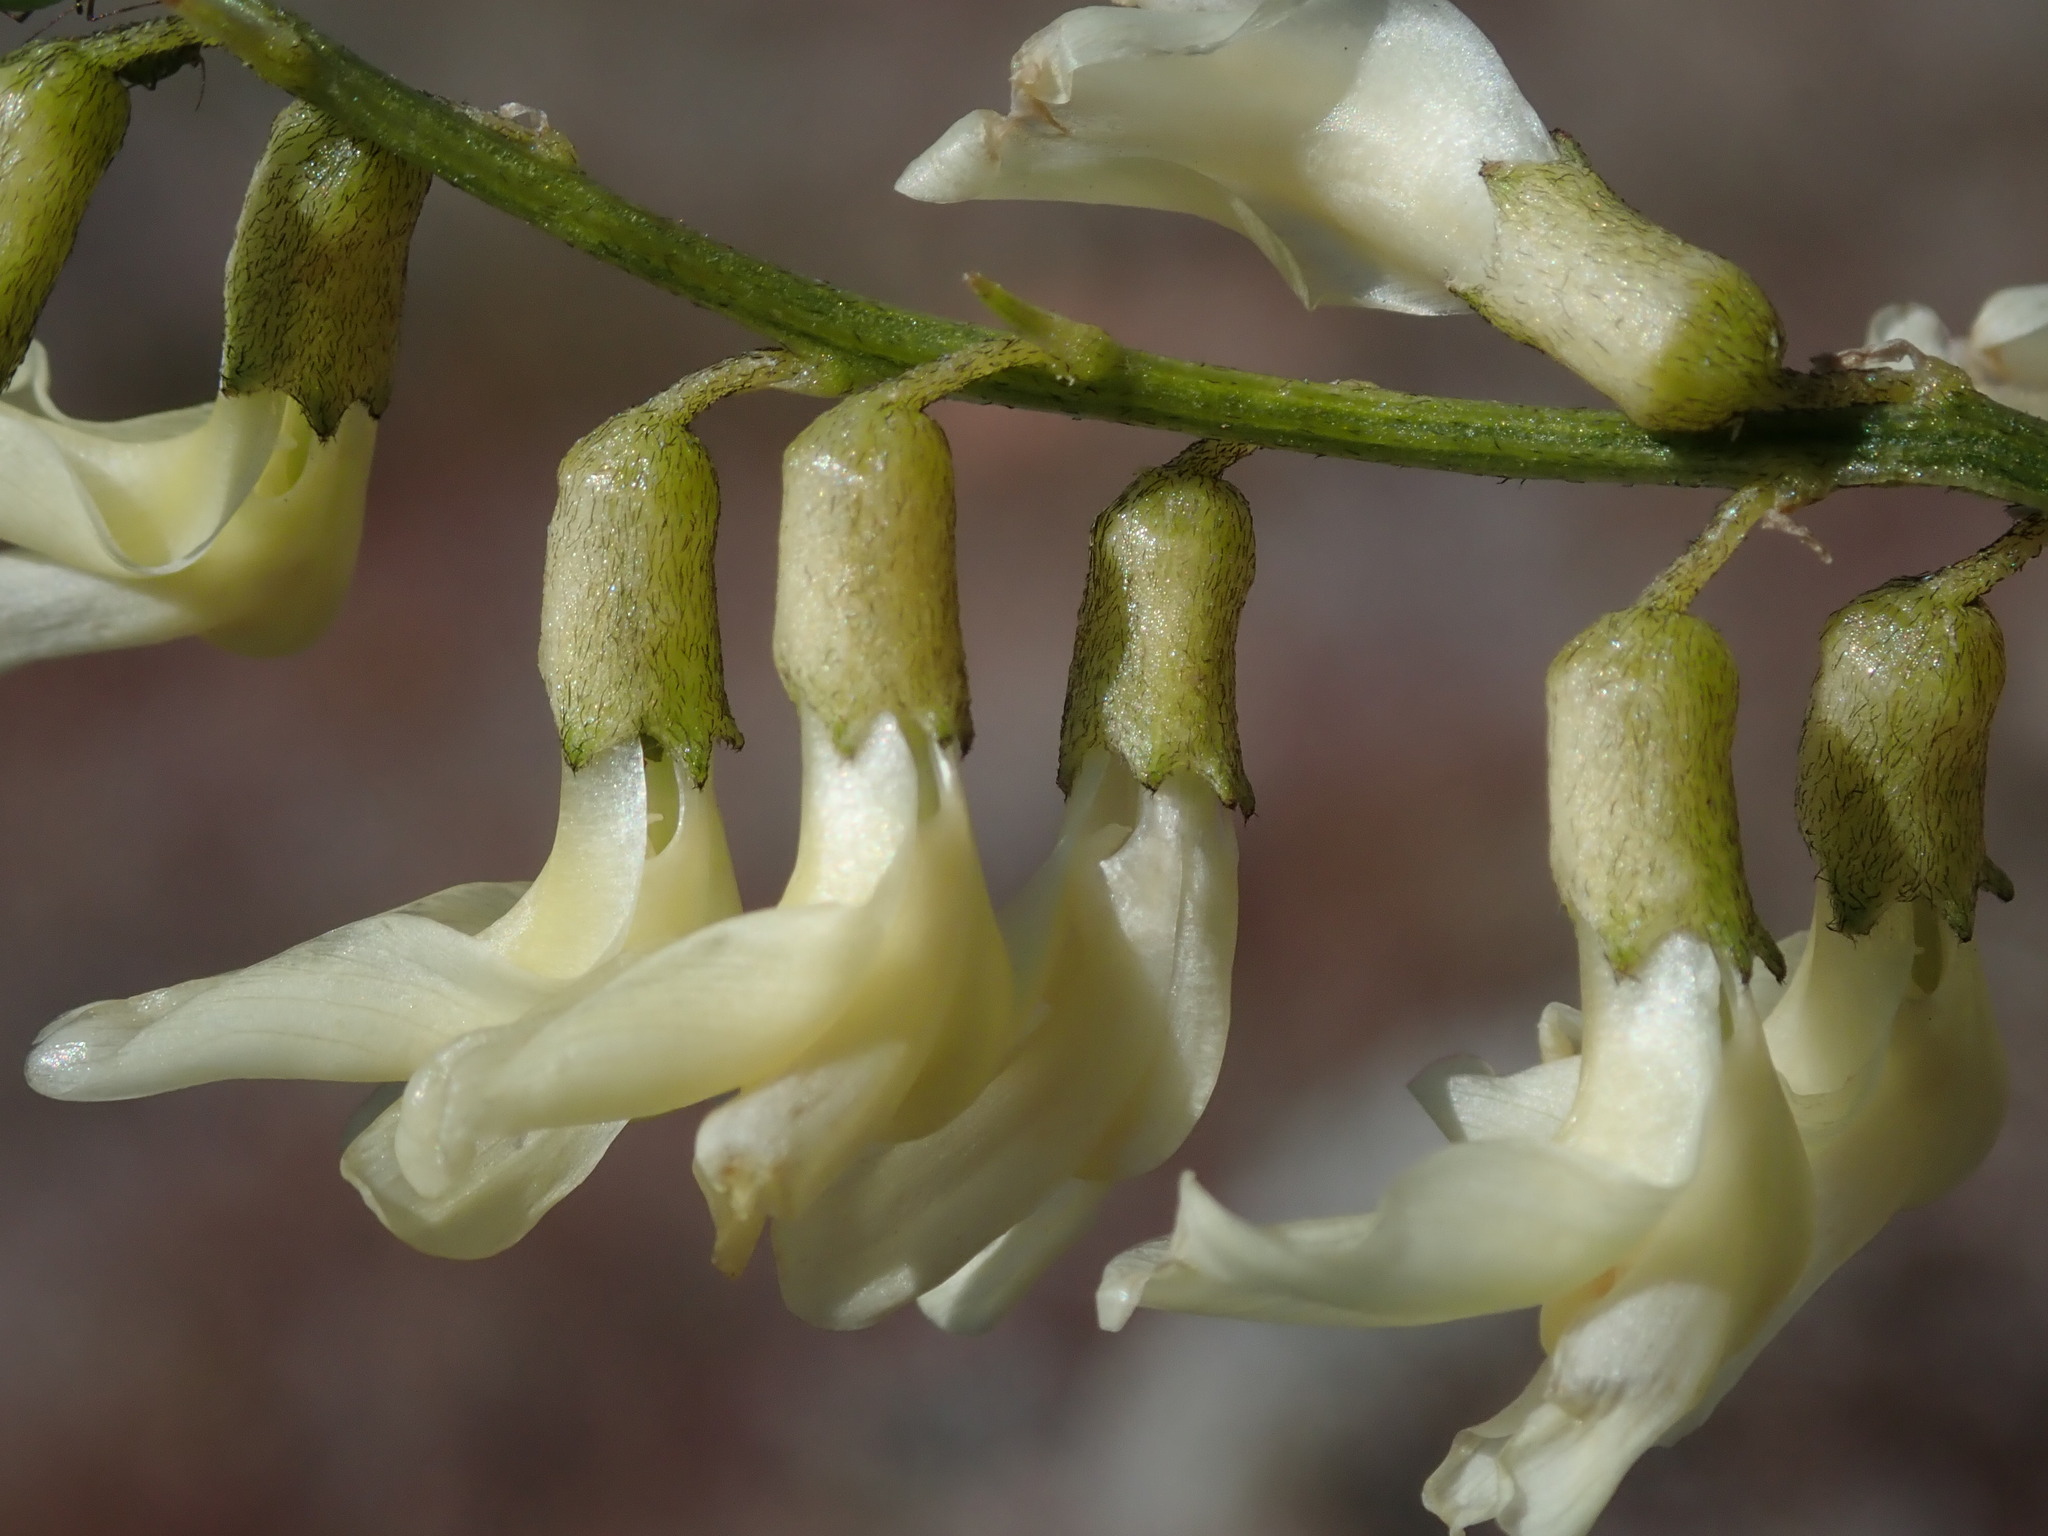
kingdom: Plantae
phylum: Tracheophyta
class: Magnoliopsida
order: Fabales
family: Fabaceae
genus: Astragalus
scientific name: Astragalus filipes
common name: Basalt milk-vetch
